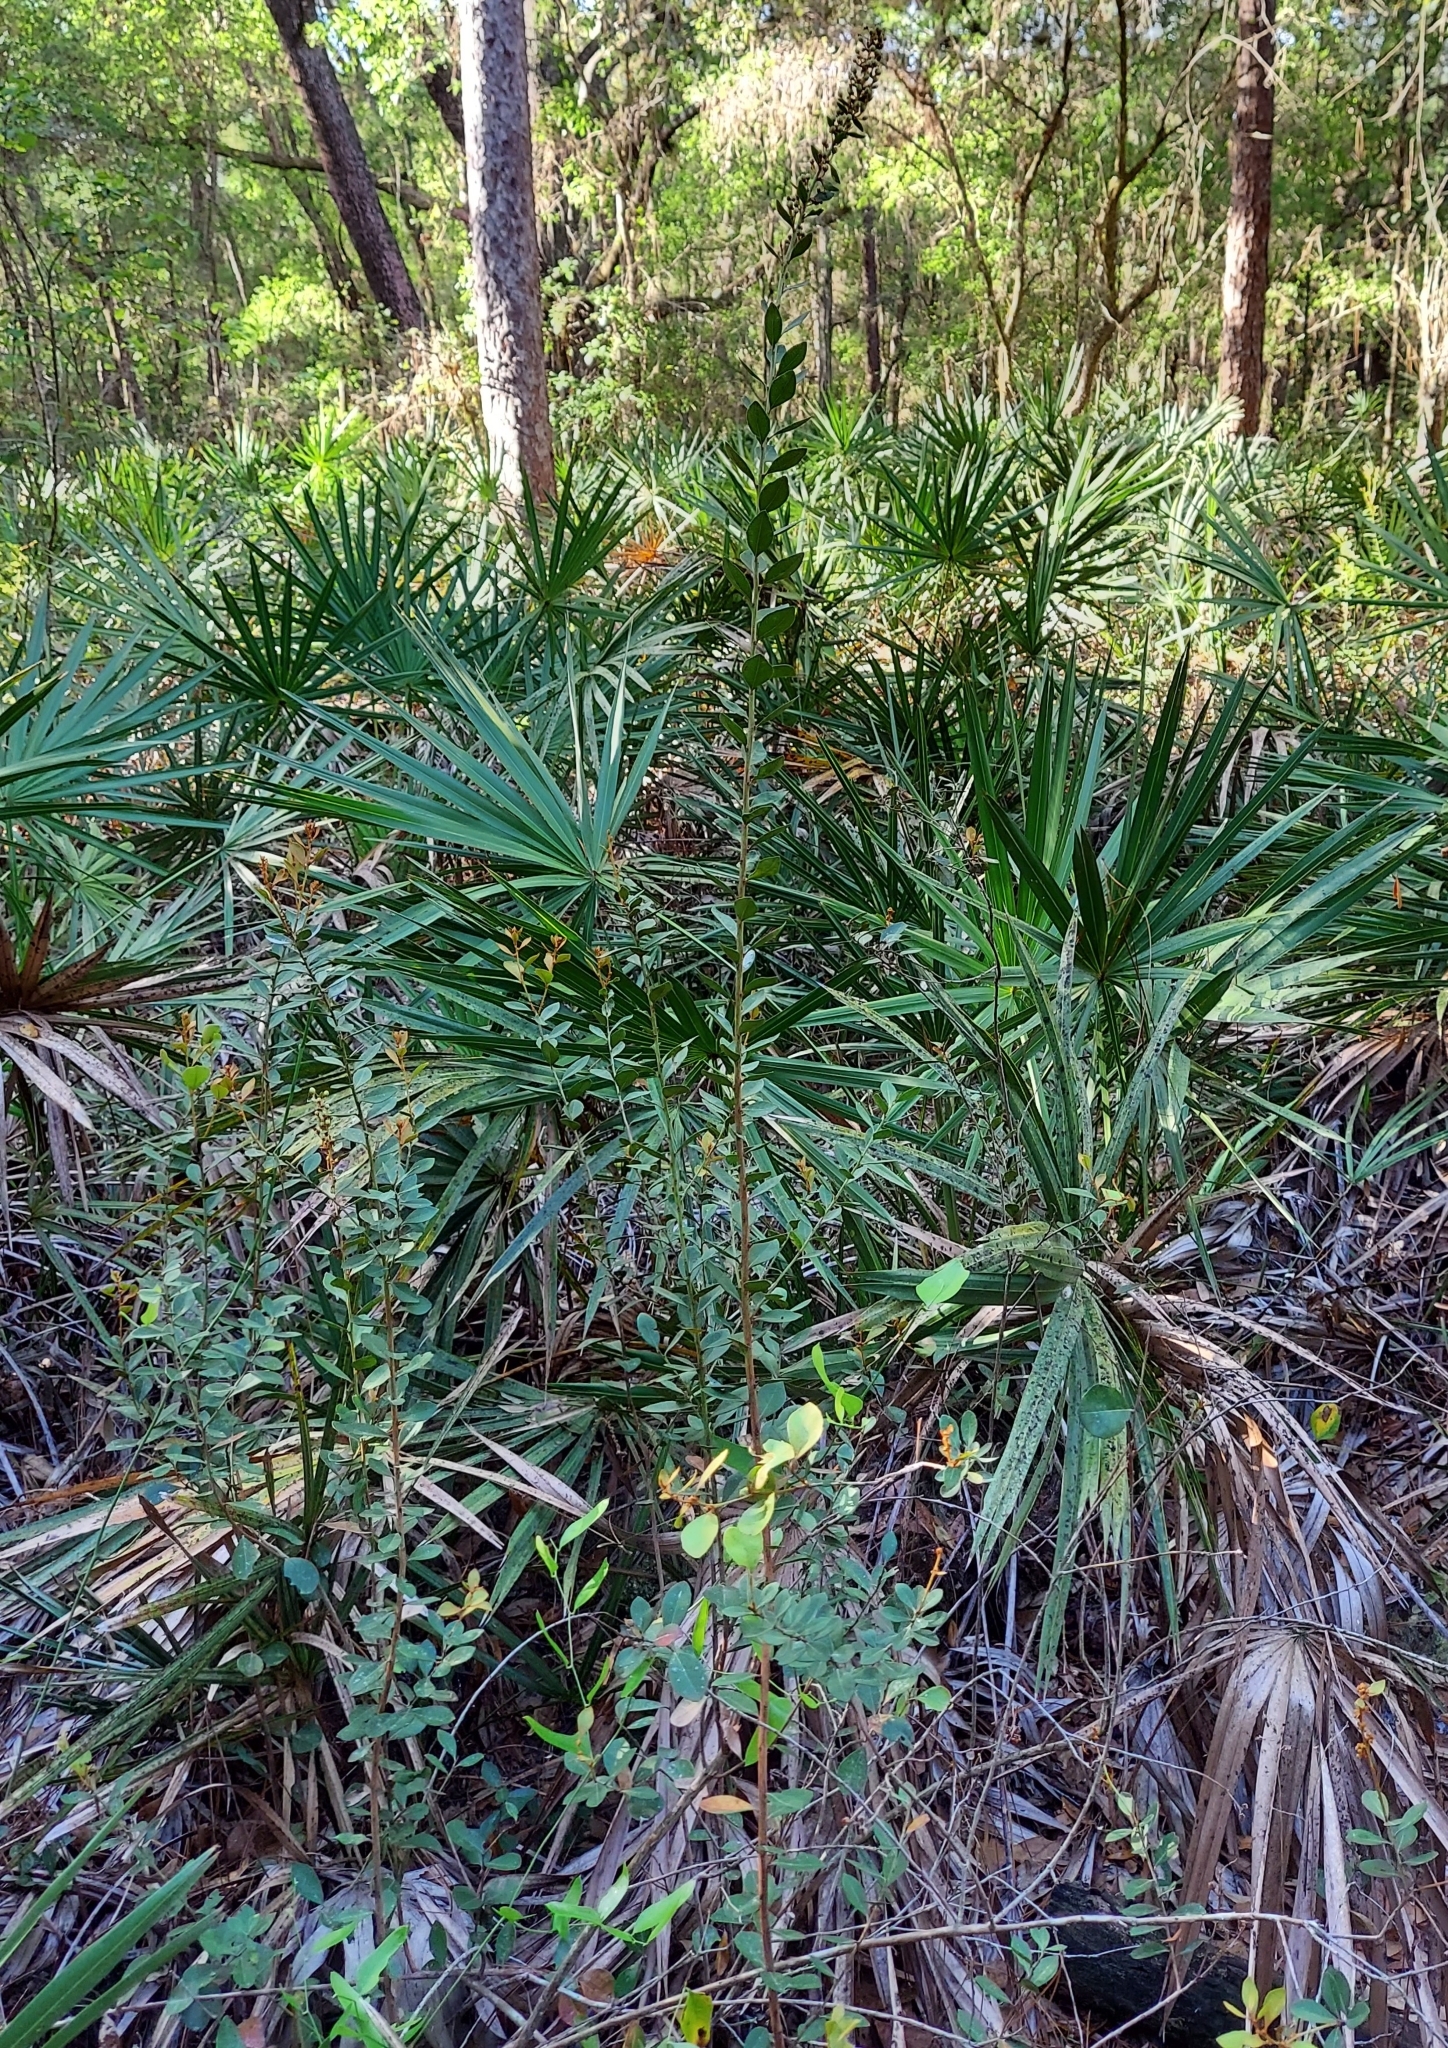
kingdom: Plantae
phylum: Tracheophyta
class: Magnoliopsida
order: Ericales
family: Ericaceae
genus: Lyonia
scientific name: Lyonia fruticosa
